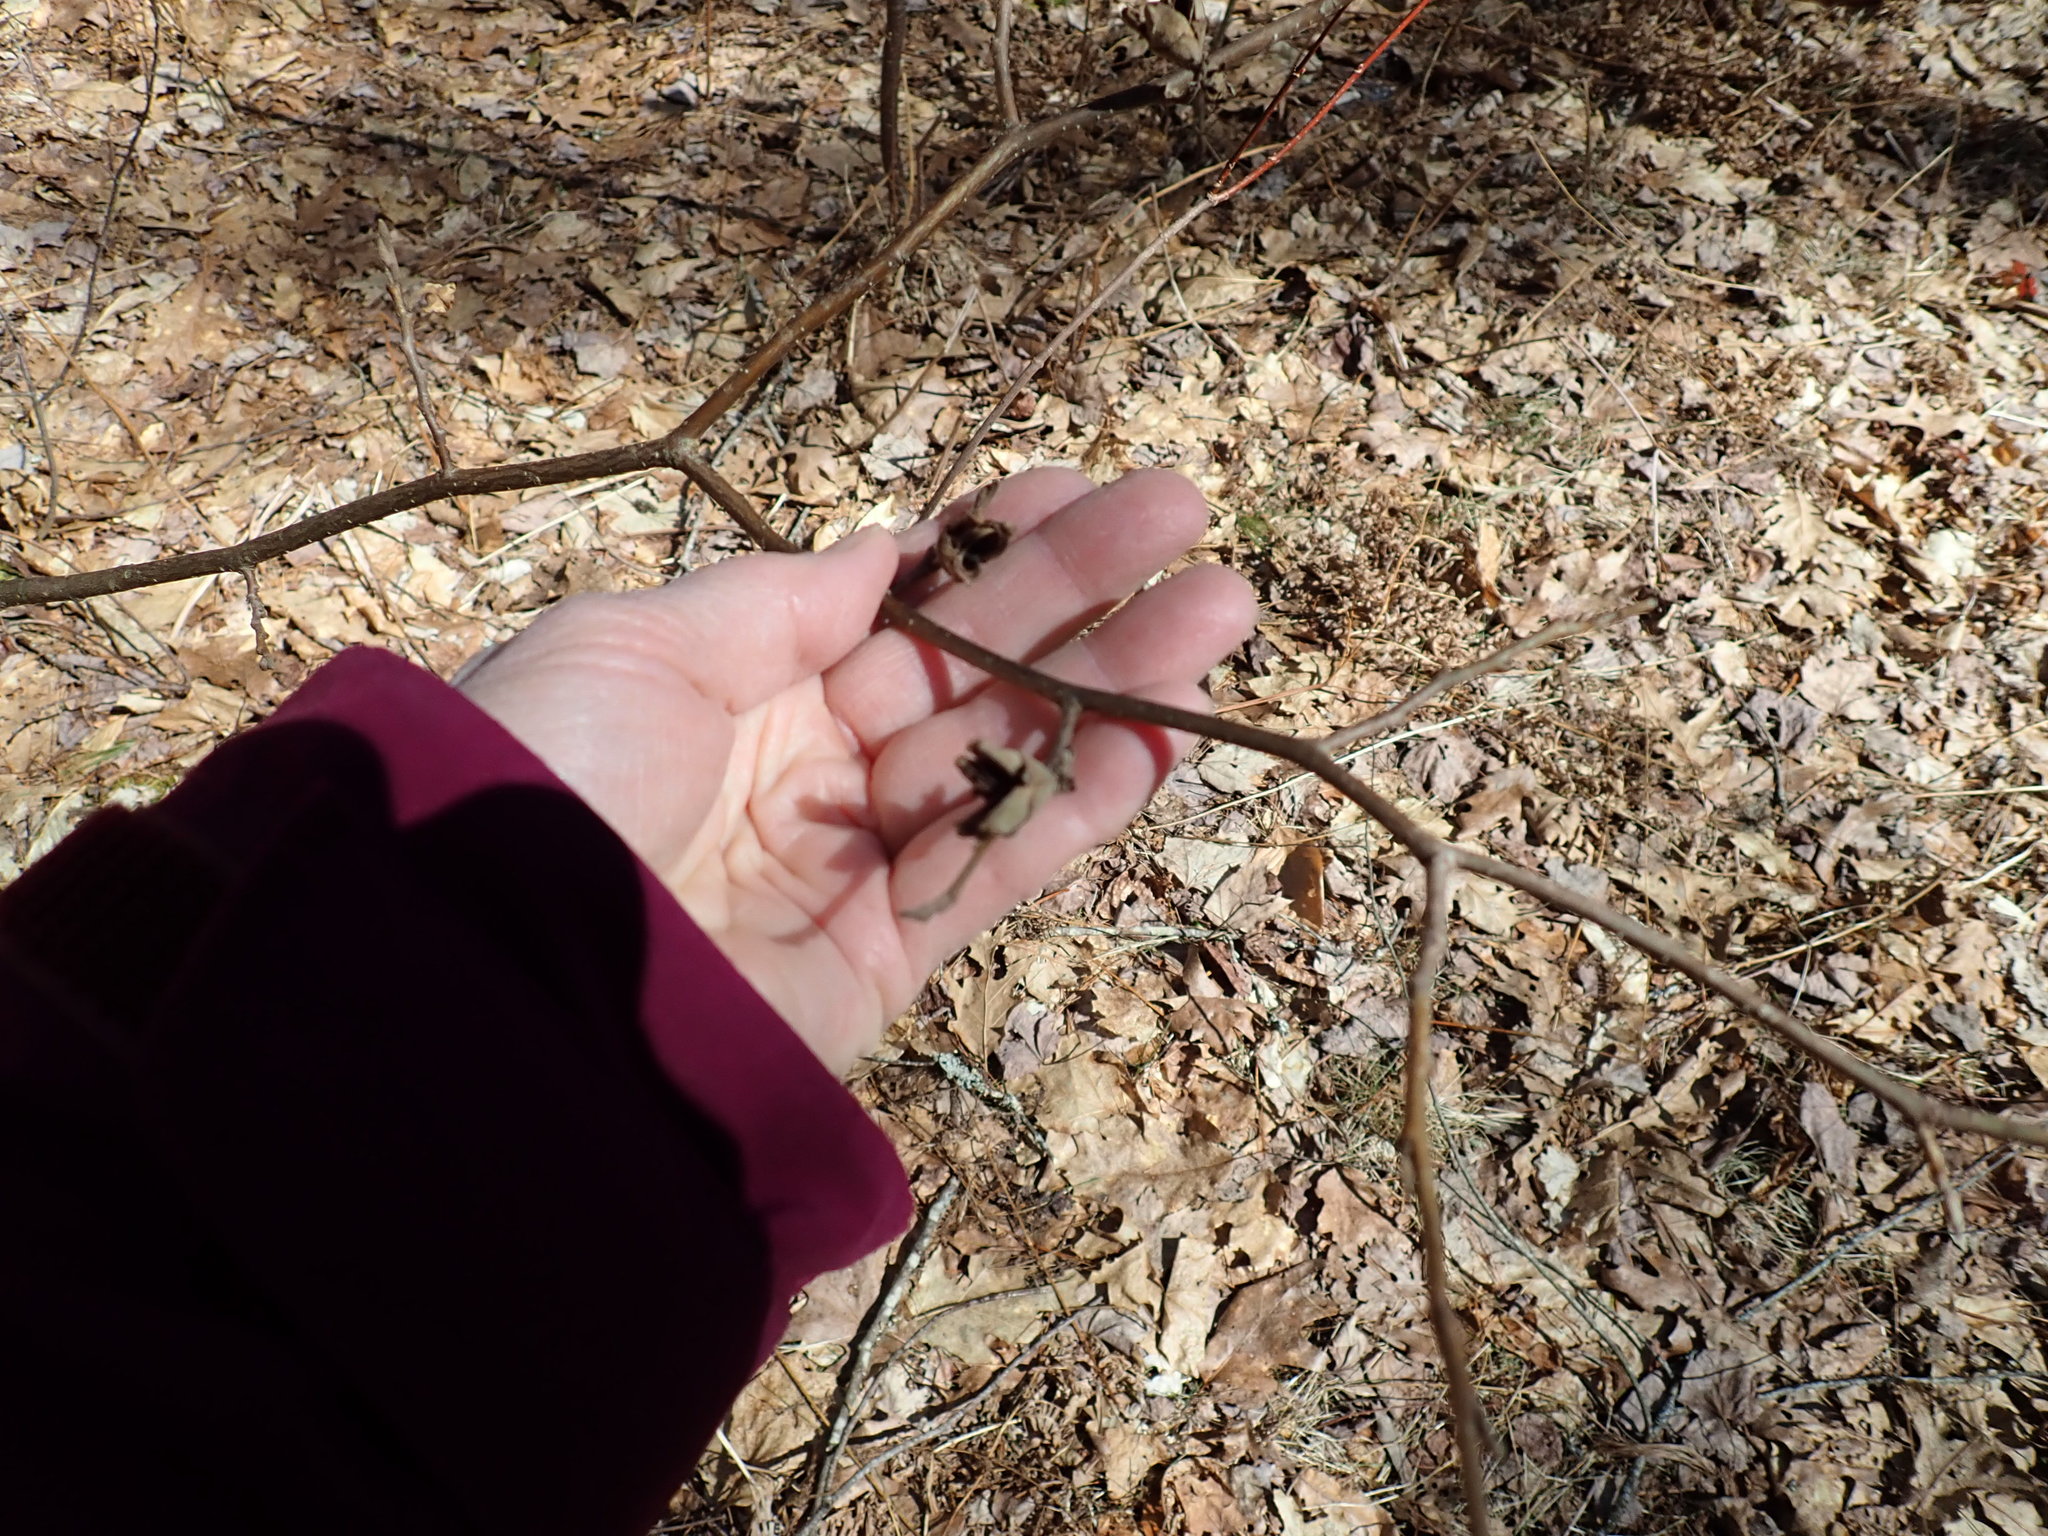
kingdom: Plantae
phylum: Tracheophyta
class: Magnoliopsida
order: Saxifragales
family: Hamamelidaceae
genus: Hamamelis
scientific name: Hamamelis virginiana
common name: Witch-hazel
